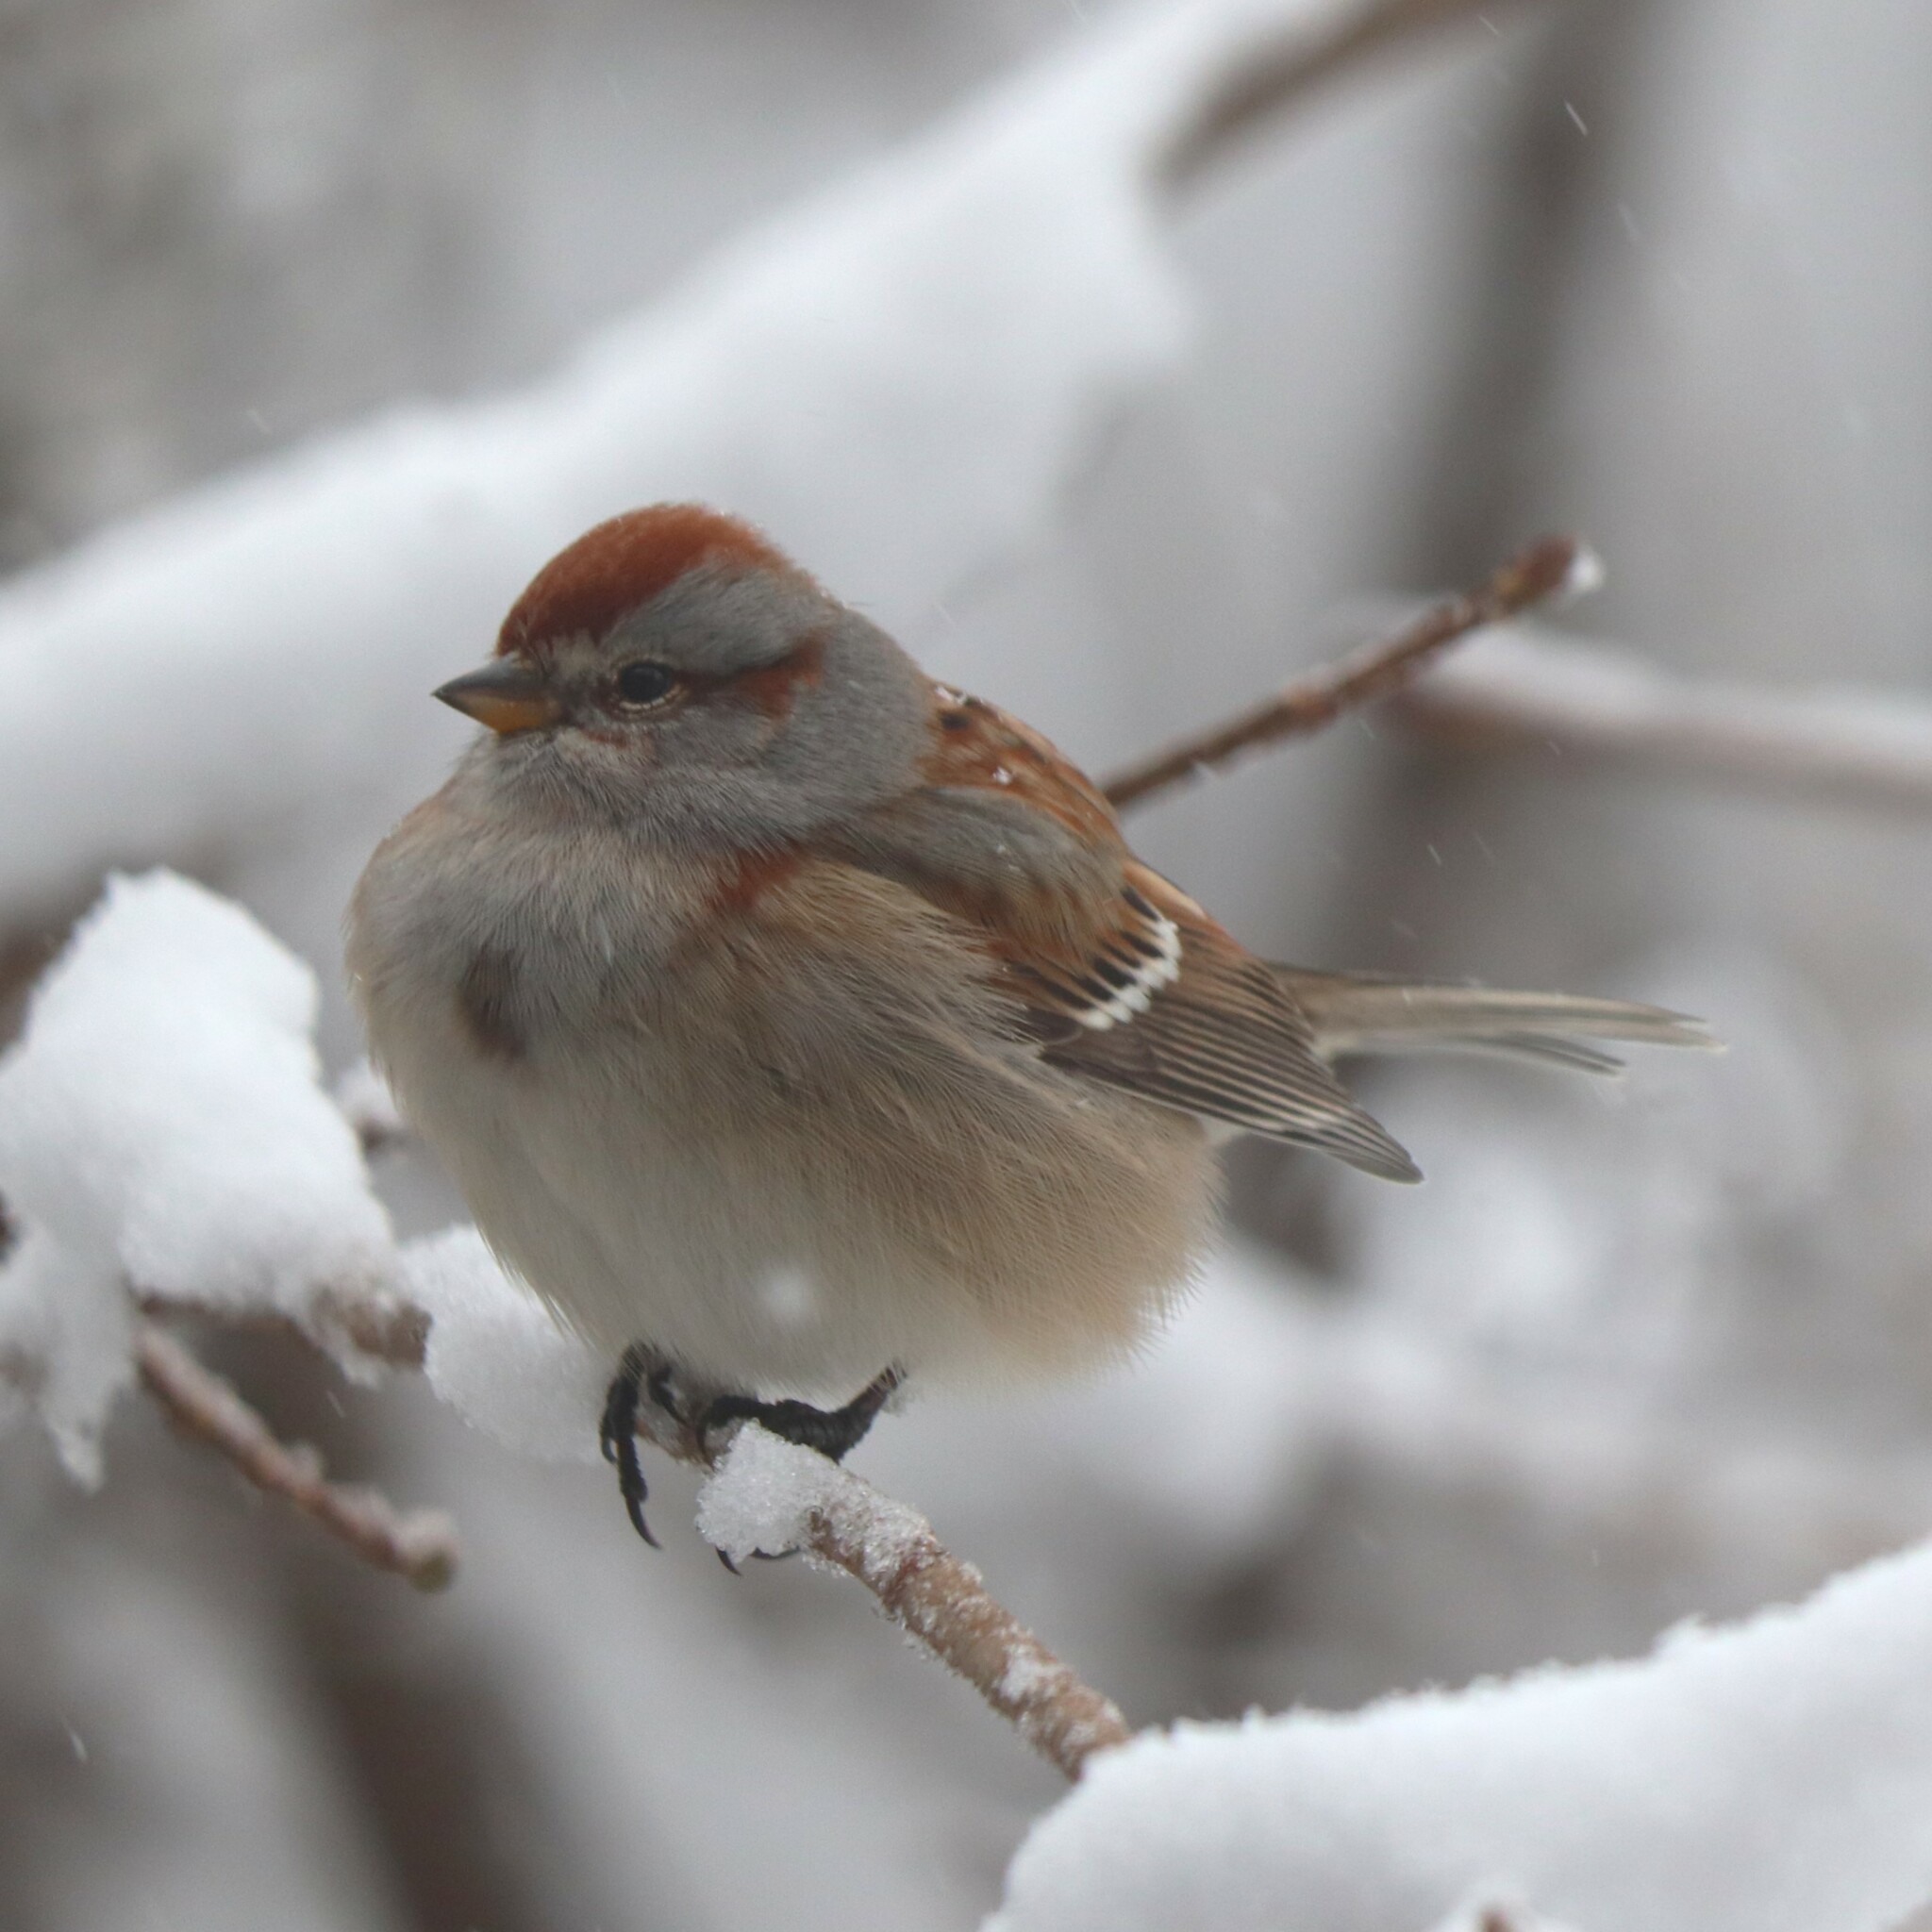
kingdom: Animalia
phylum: Chordata
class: Aves
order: Passeriformes
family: Passerellidae
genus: Spizelloides
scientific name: Spizelloides arborea
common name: American tree sparrow
